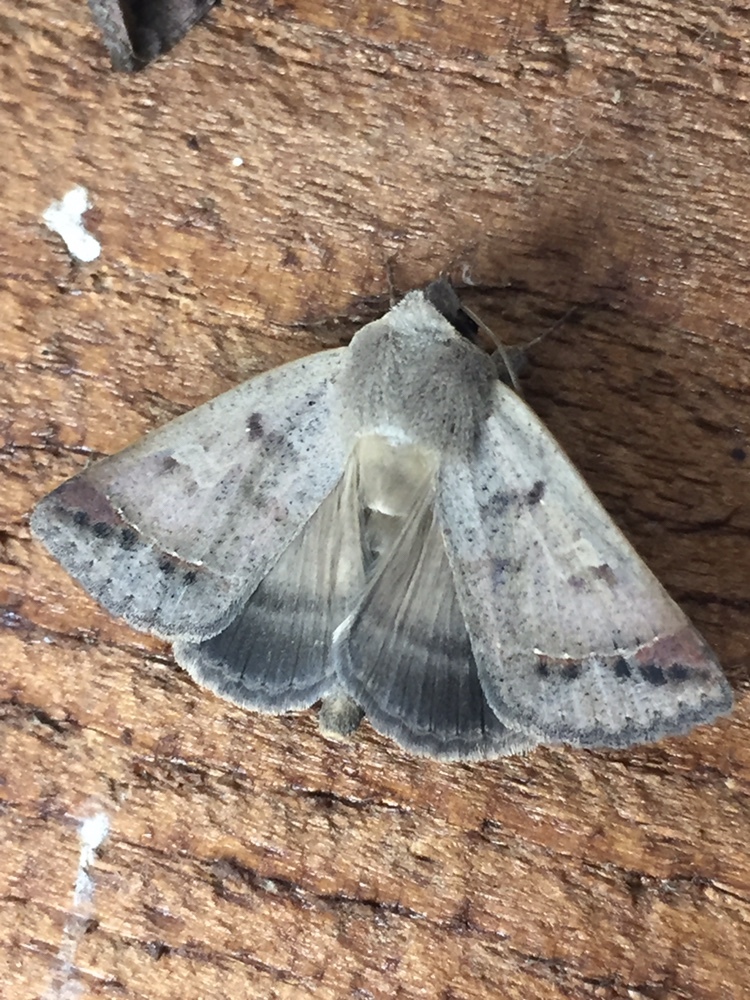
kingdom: Animalia
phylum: Arthropoda
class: Insecta
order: Lepidoptera
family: Erebidae
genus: Pantydia
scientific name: Pantydia sparsa
